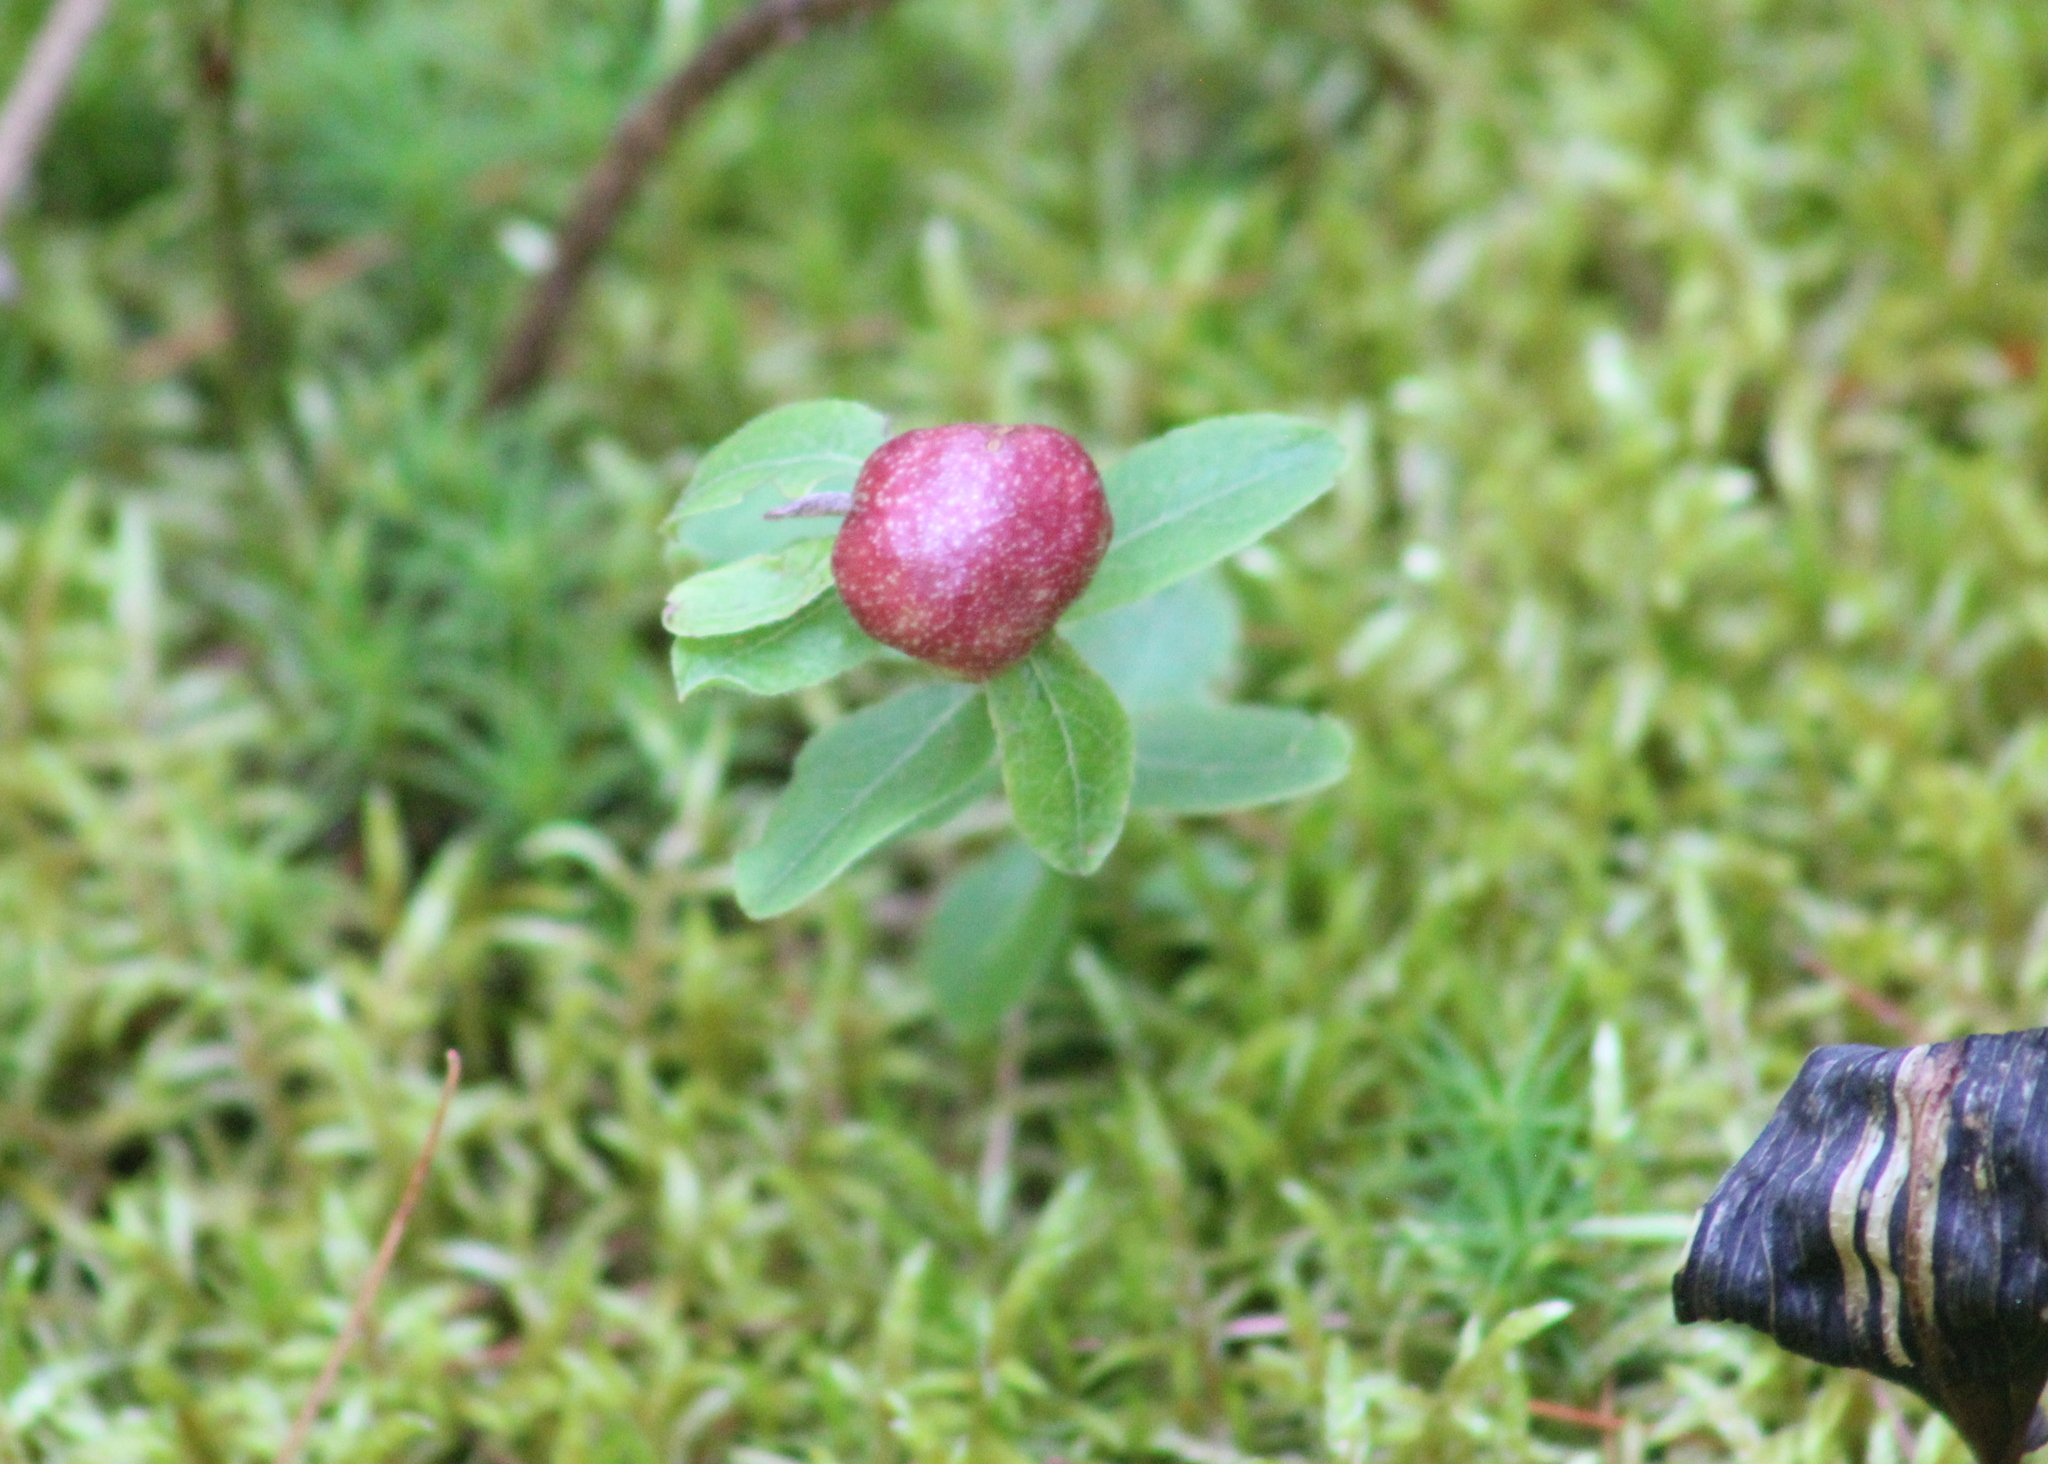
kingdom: Animalia
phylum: Arthropoda
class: Insecta
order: Hymenoptera
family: Pteromalidae
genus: Hemadas
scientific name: Hemadas nubilipennis
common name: Blueberry stem gall wasp
